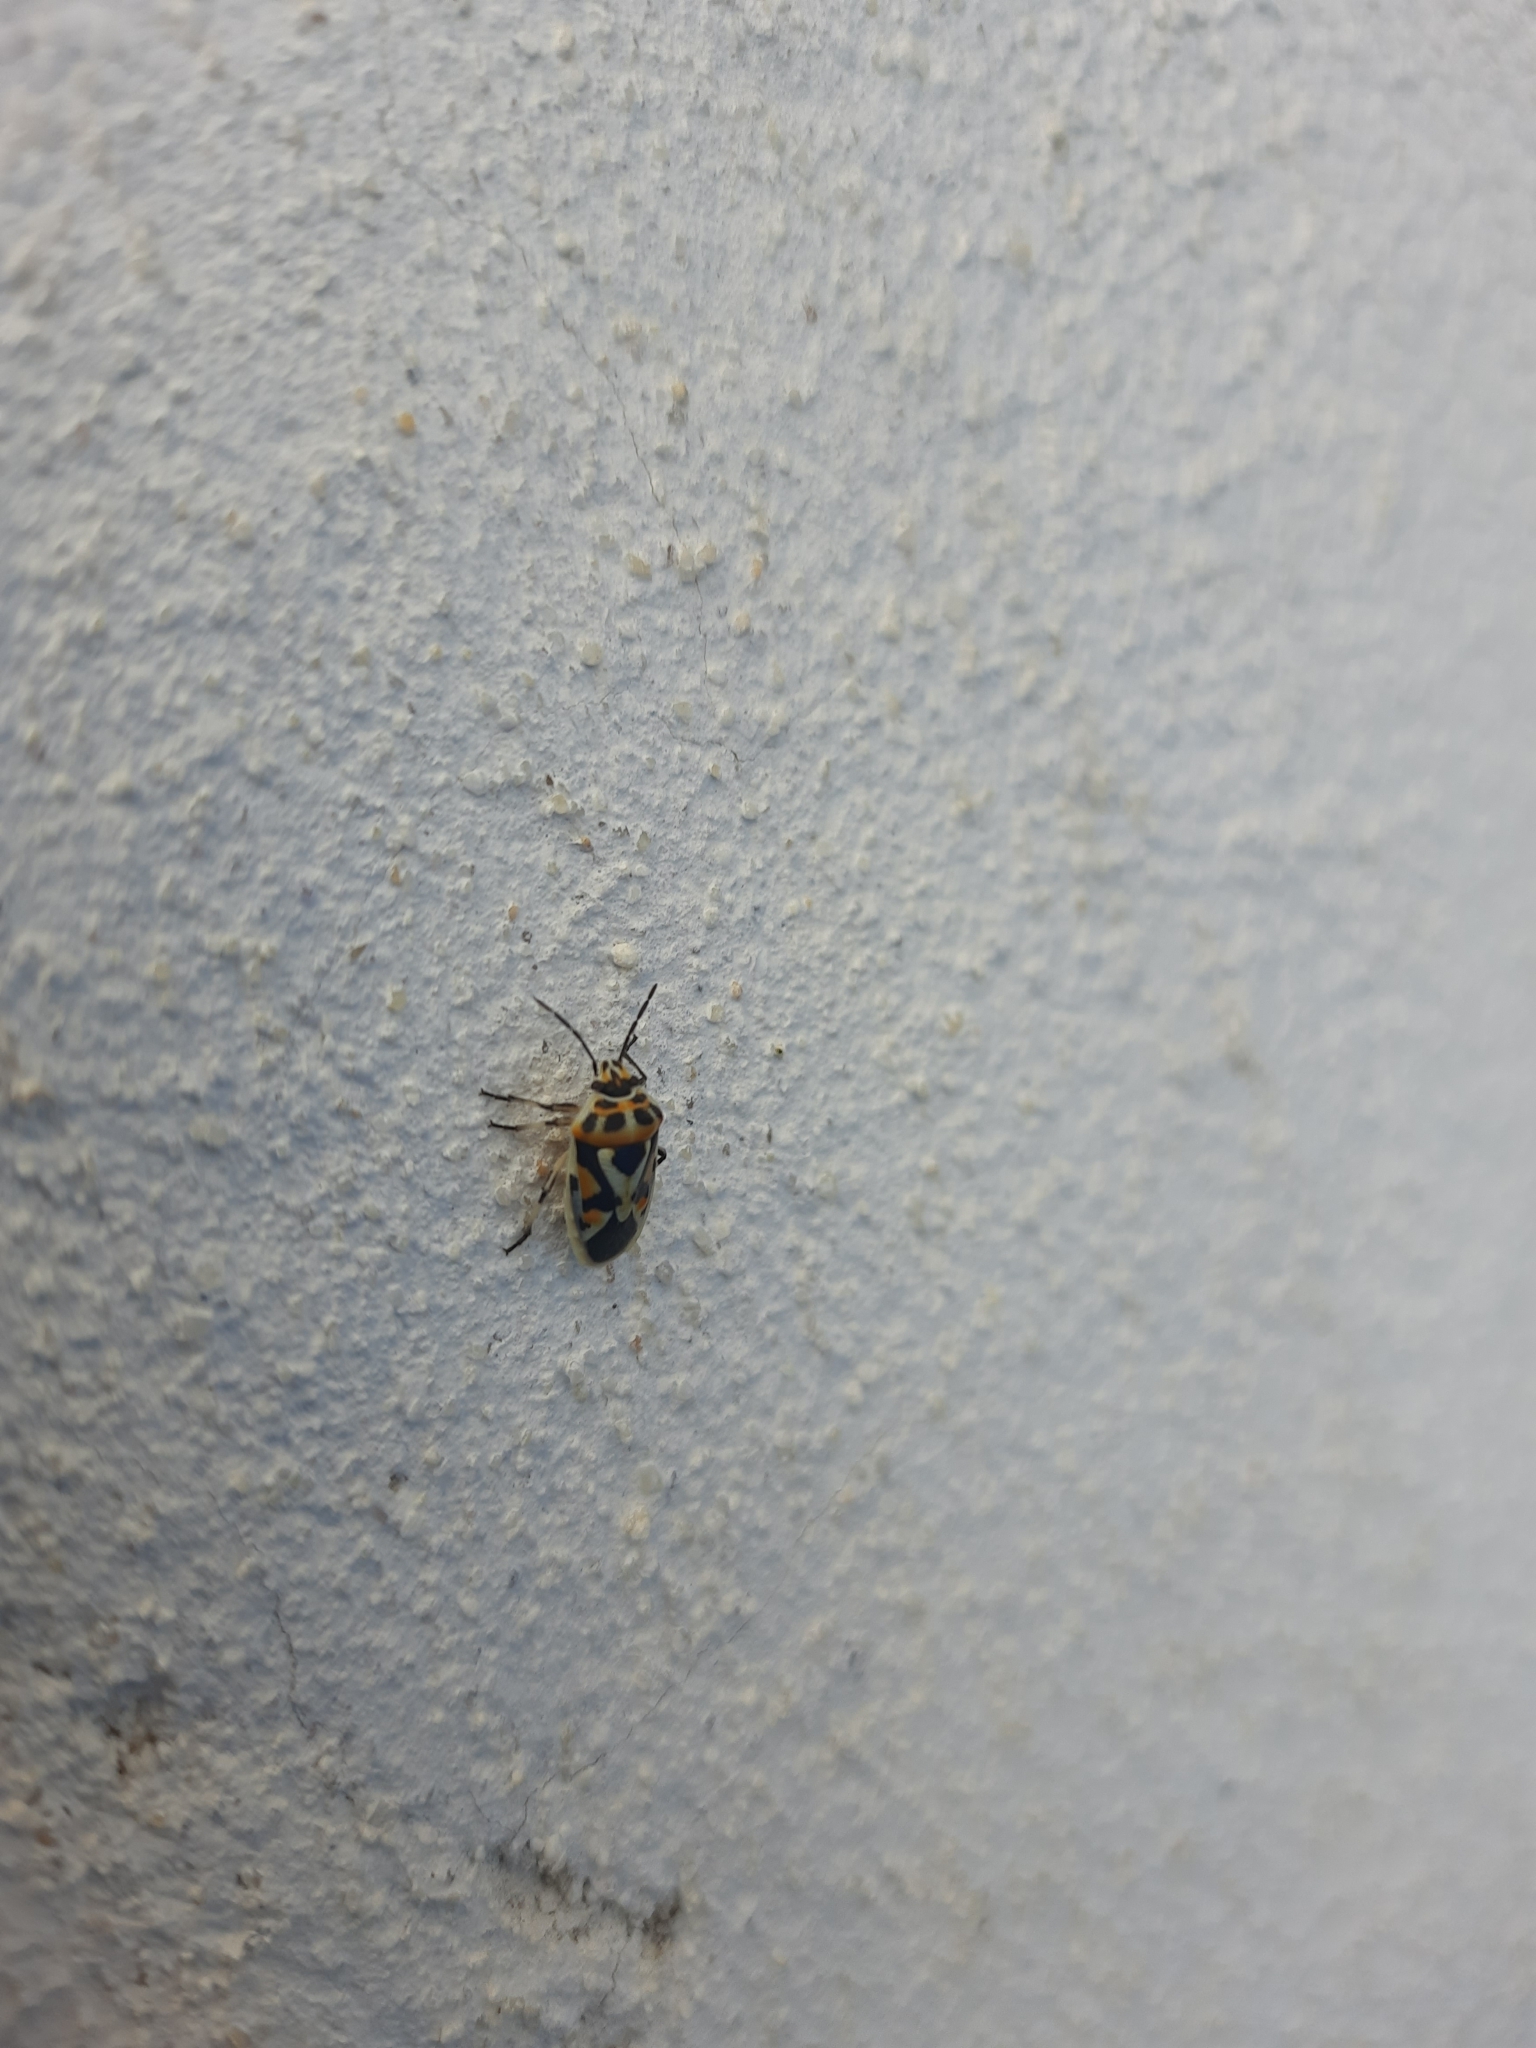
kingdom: Animalia
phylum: Arthropoda
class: Insecta
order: Hemiptera
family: Pentatomidae
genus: Eurydema
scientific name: Eurydema ornata
